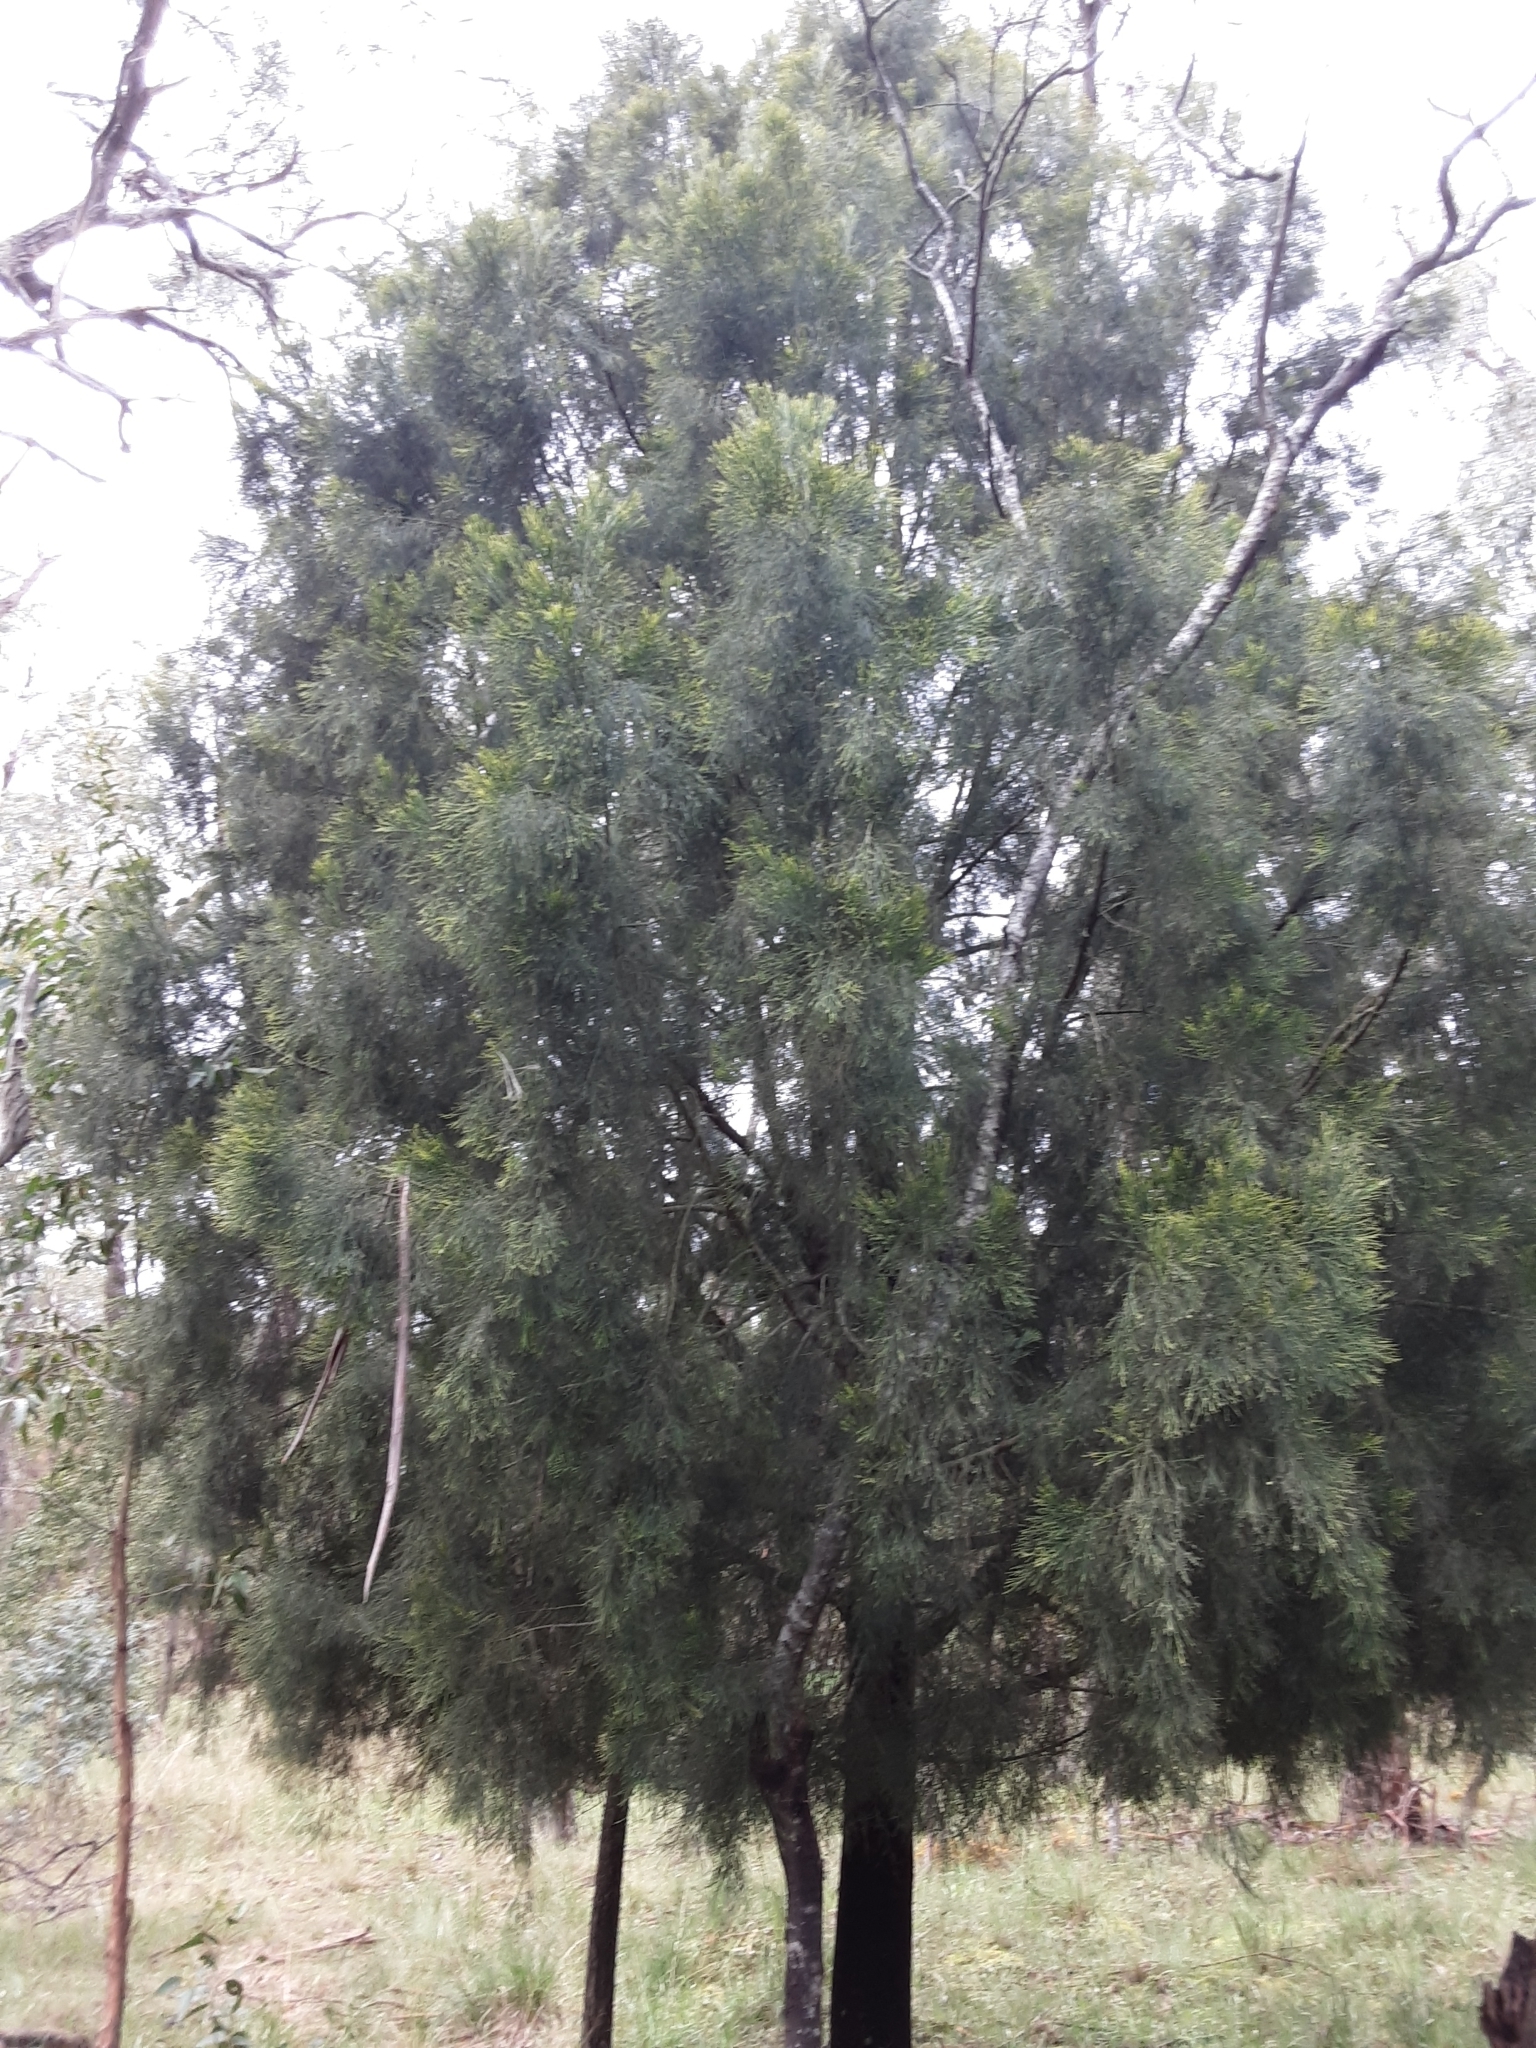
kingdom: Plantae
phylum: Tracheophyta
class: Magnoliopsida
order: Santalales
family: Santalaceae
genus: Exocarpos
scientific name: Exocarpos cupressiformis
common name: Cherry ballart
